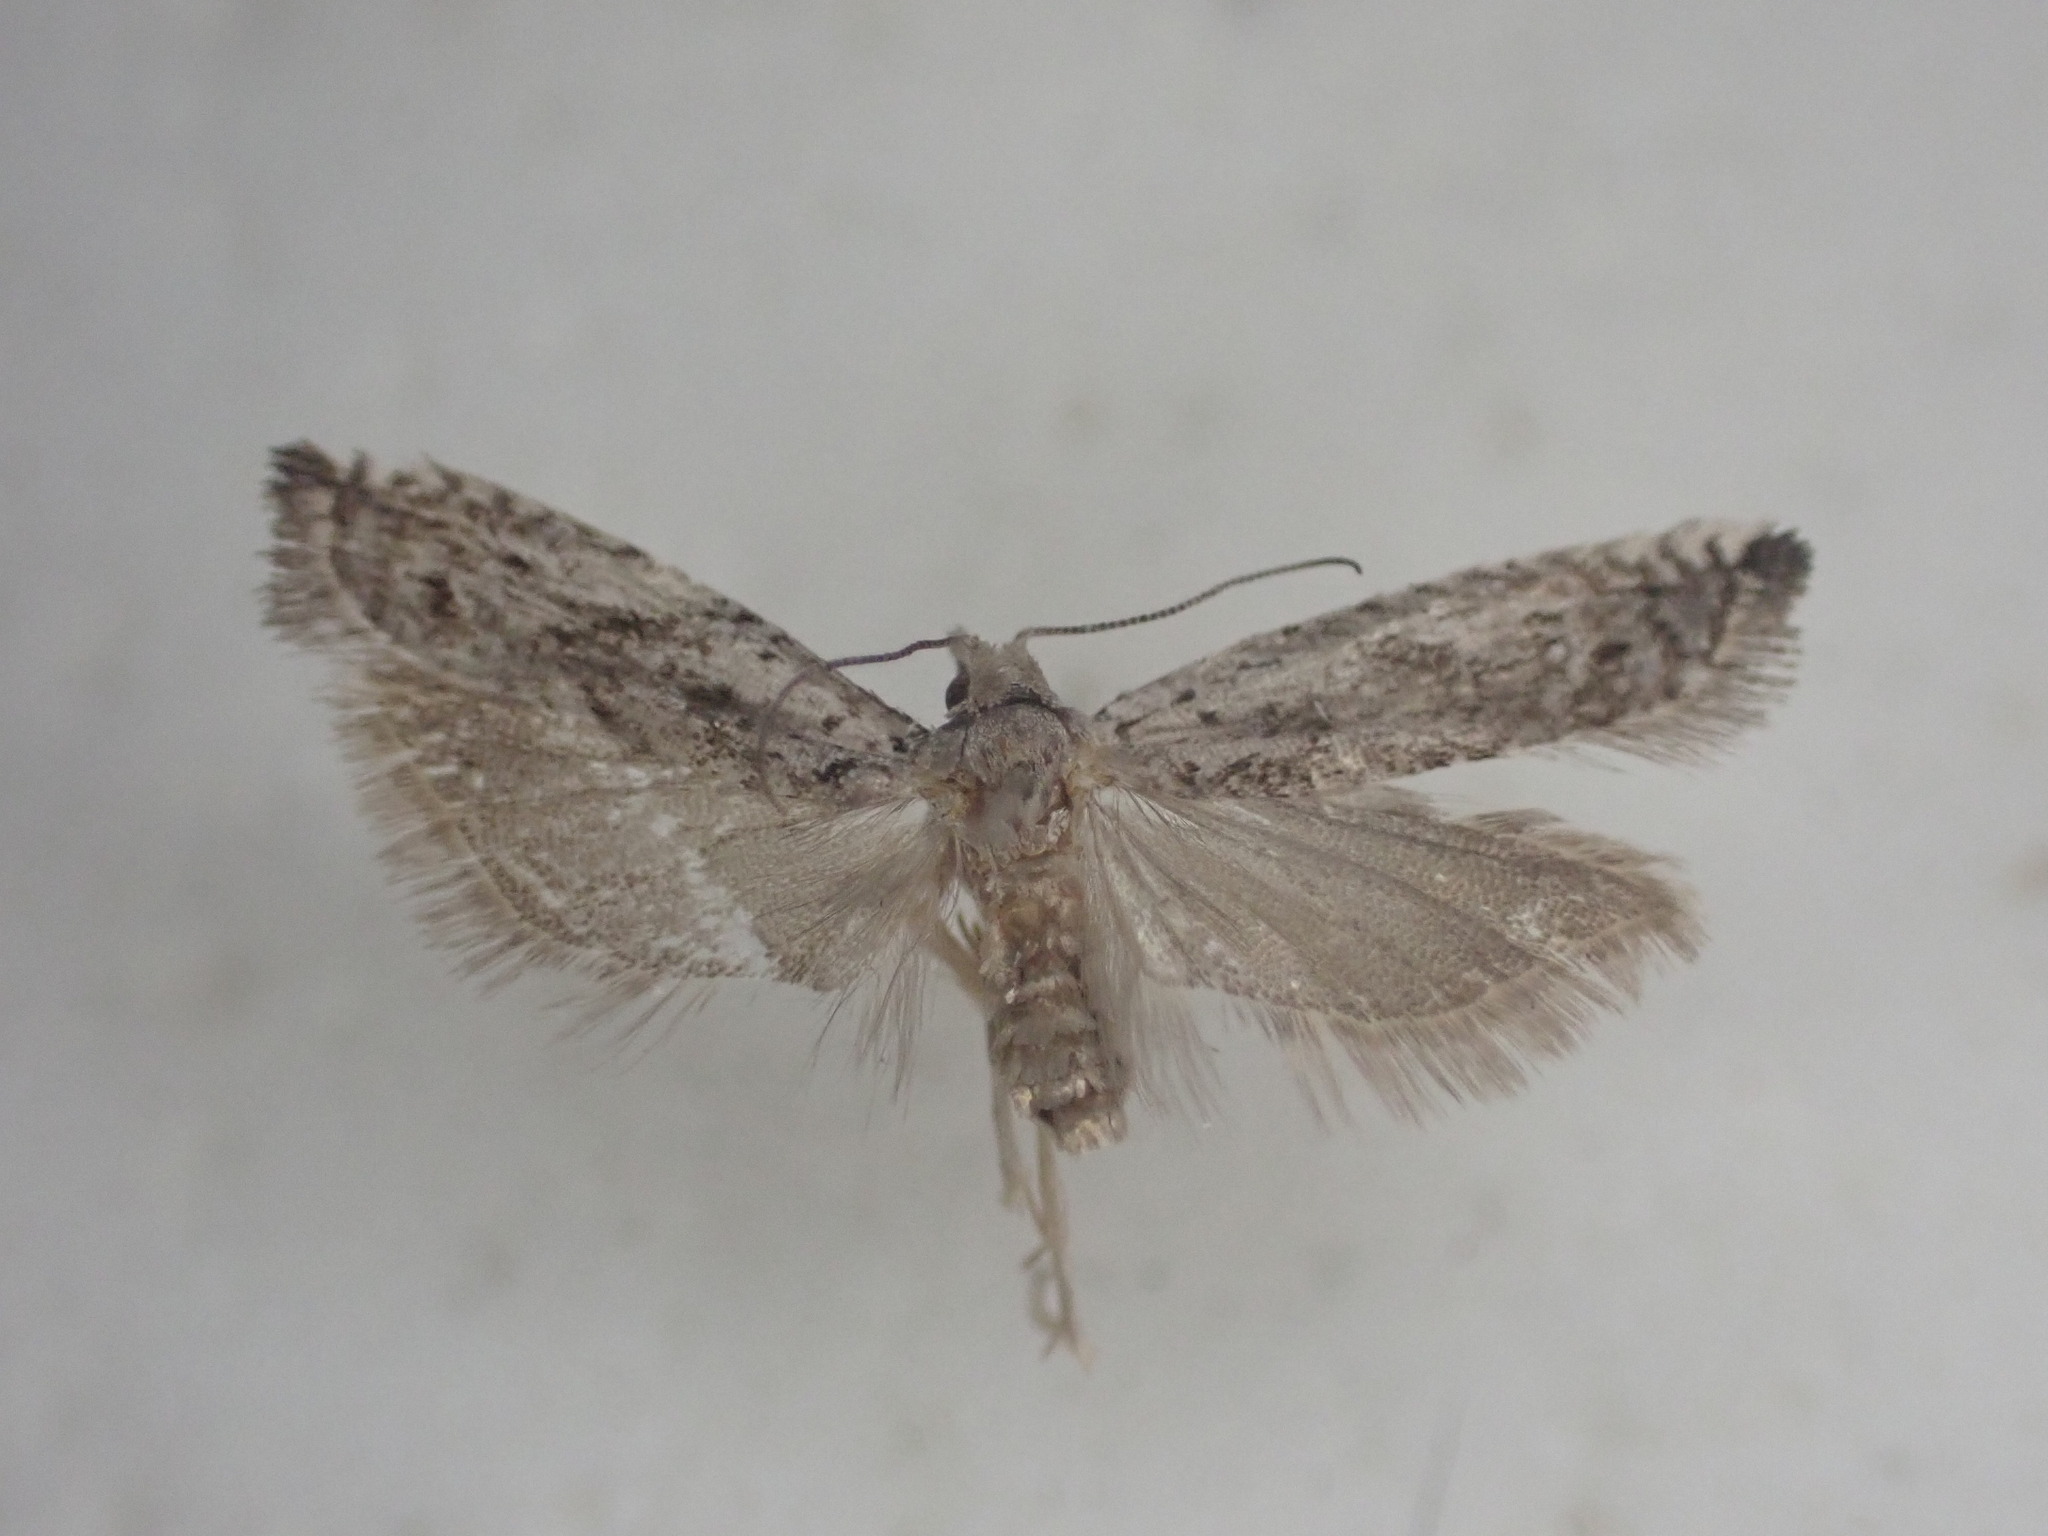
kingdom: Animalia
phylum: Arthropoda
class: Insecta
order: Lepidoptera
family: Tortricidae
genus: Holocola
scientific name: Holocola zopherana
